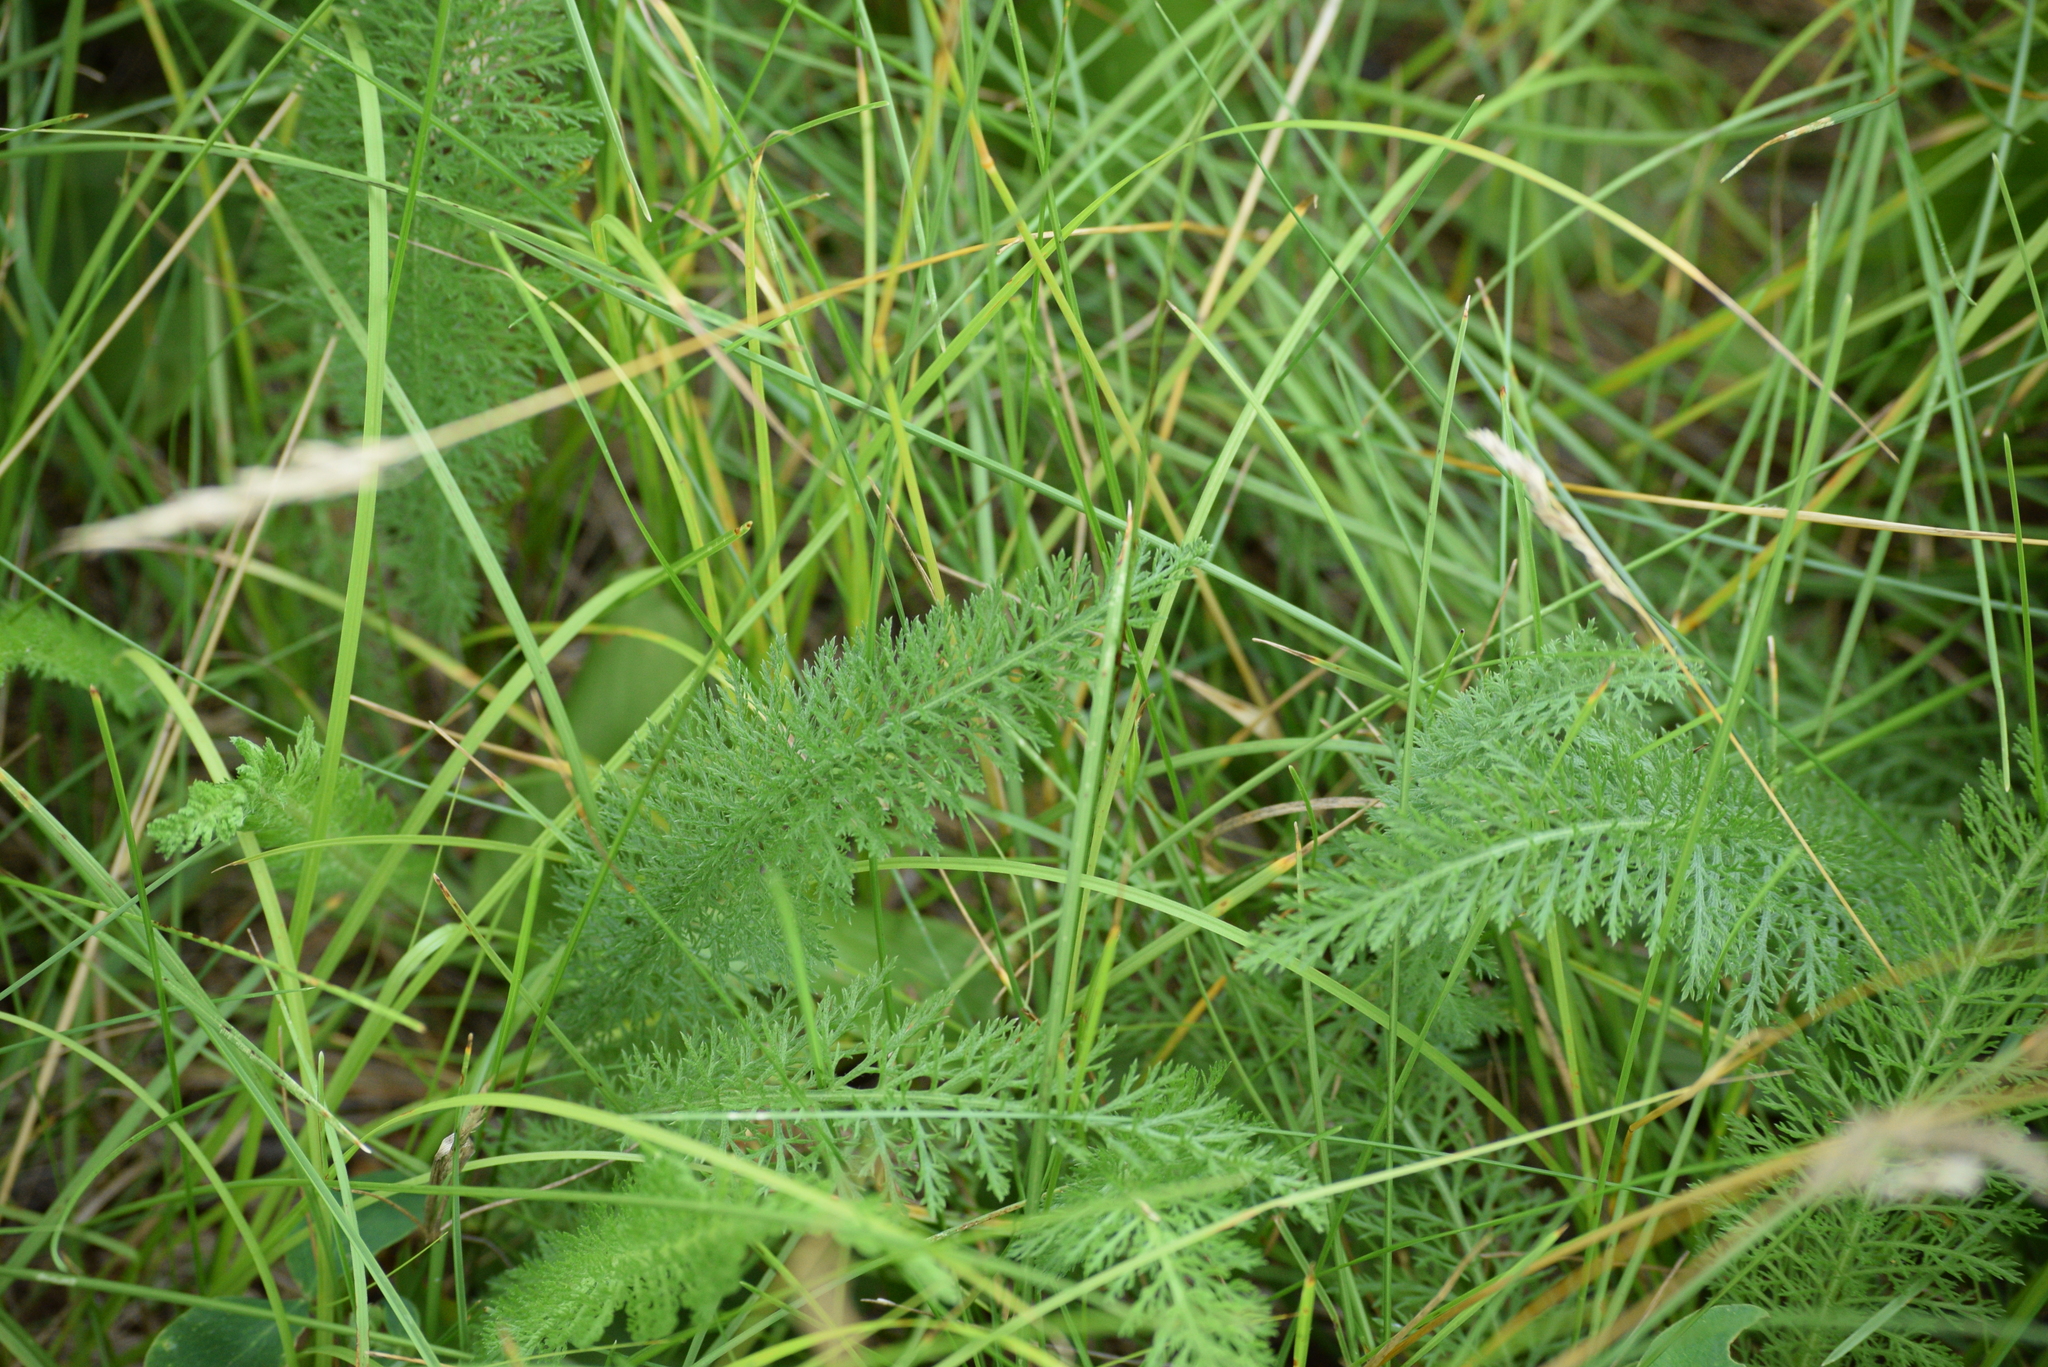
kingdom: Plantae
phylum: Tracheophyta
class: Magnoliopsida
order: Asterales
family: Asteraceae
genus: Achillea
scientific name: Achillea millefolium
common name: Yarrow
